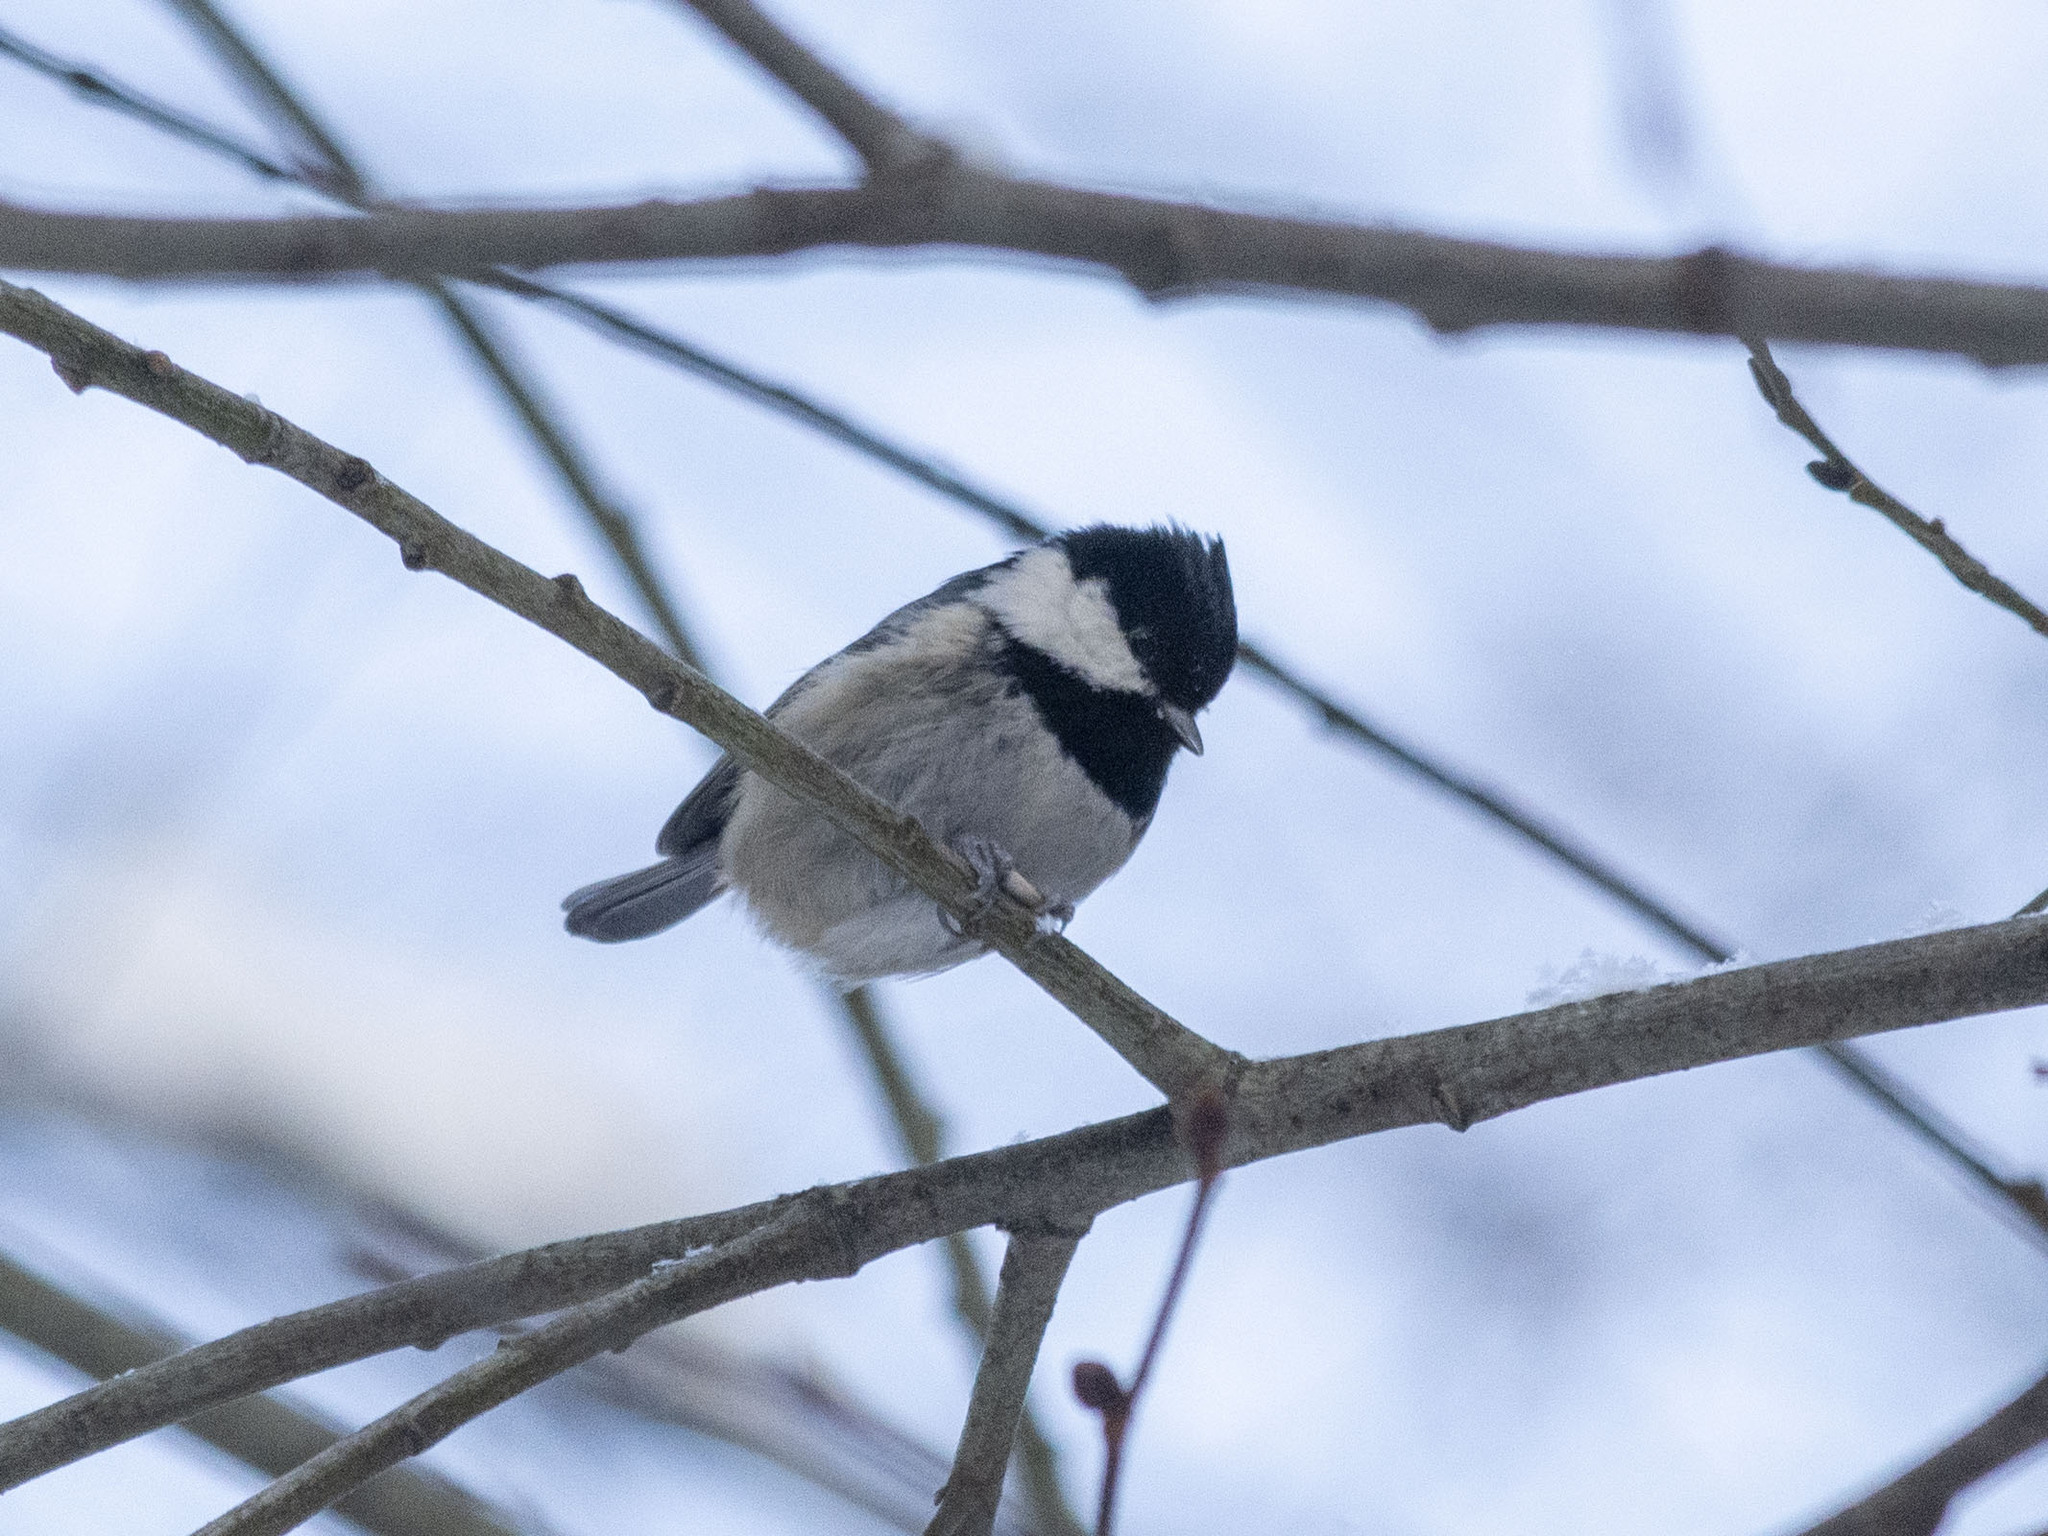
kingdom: Animalia
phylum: Chordata
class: Aves
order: Passeriformes
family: Paridae
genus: Periparus
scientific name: Periparus ater
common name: Coal tit
